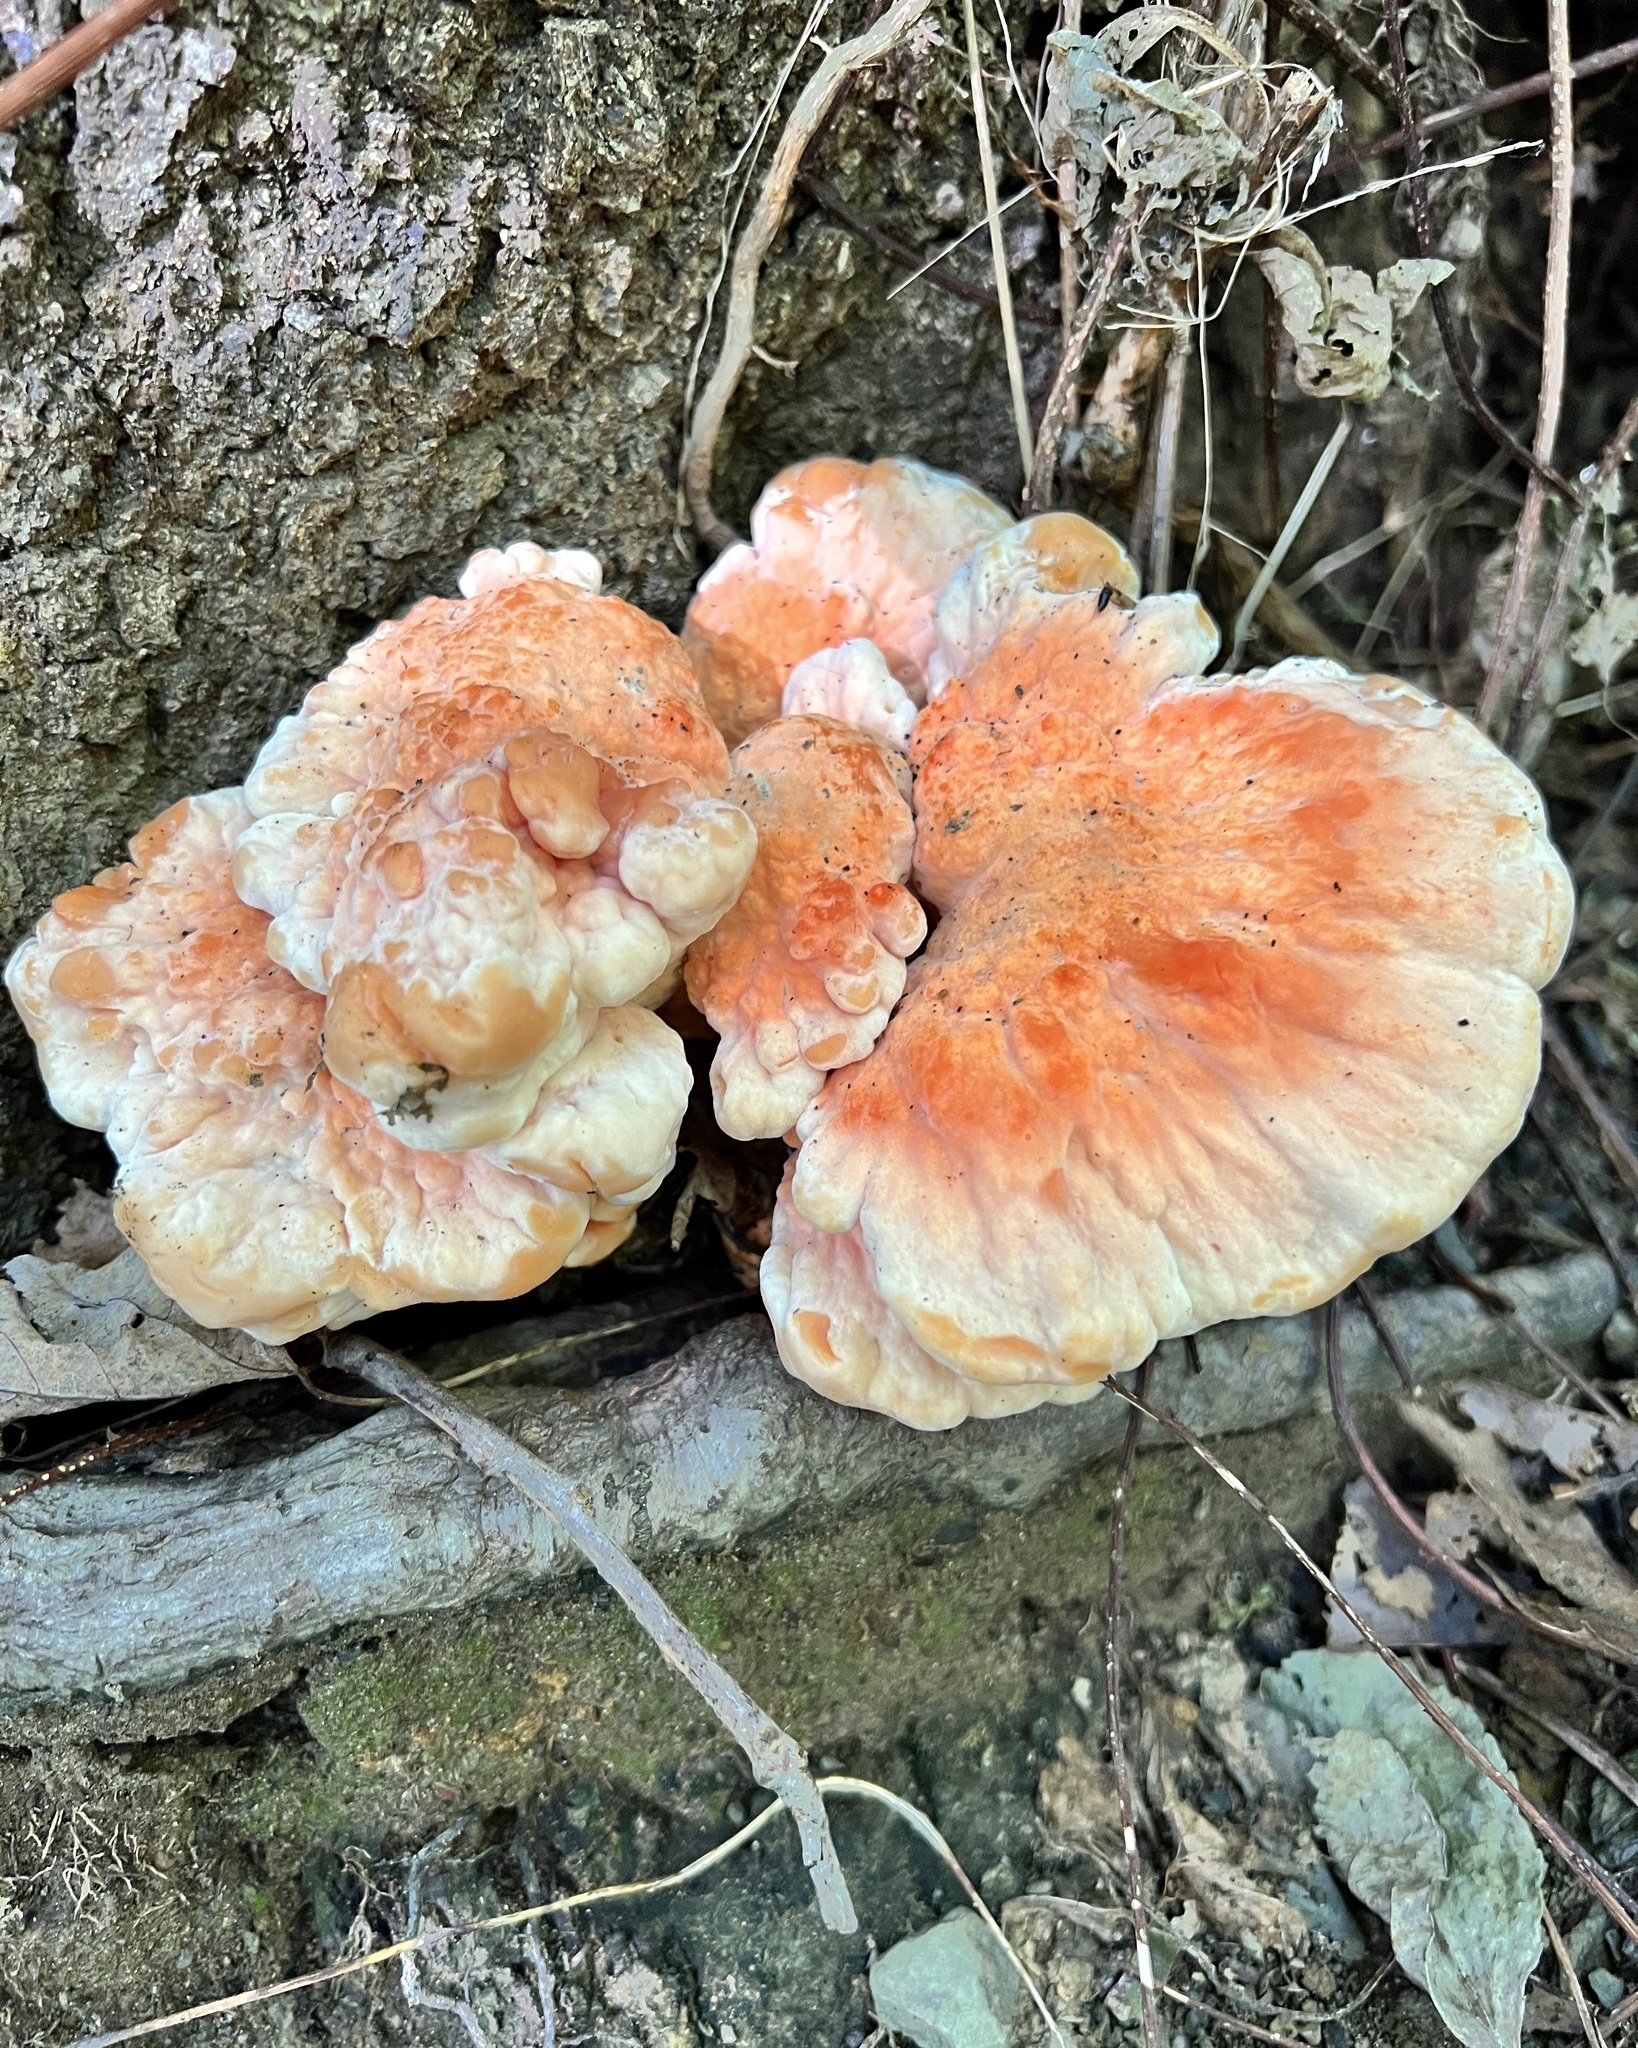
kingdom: Fungi
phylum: Basidiomycota
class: Agaricomycetes
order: Polyporales
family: Laetiporaceae
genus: Laetiporus
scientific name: Laetiporus sulphureus
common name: Chicken of the woods
